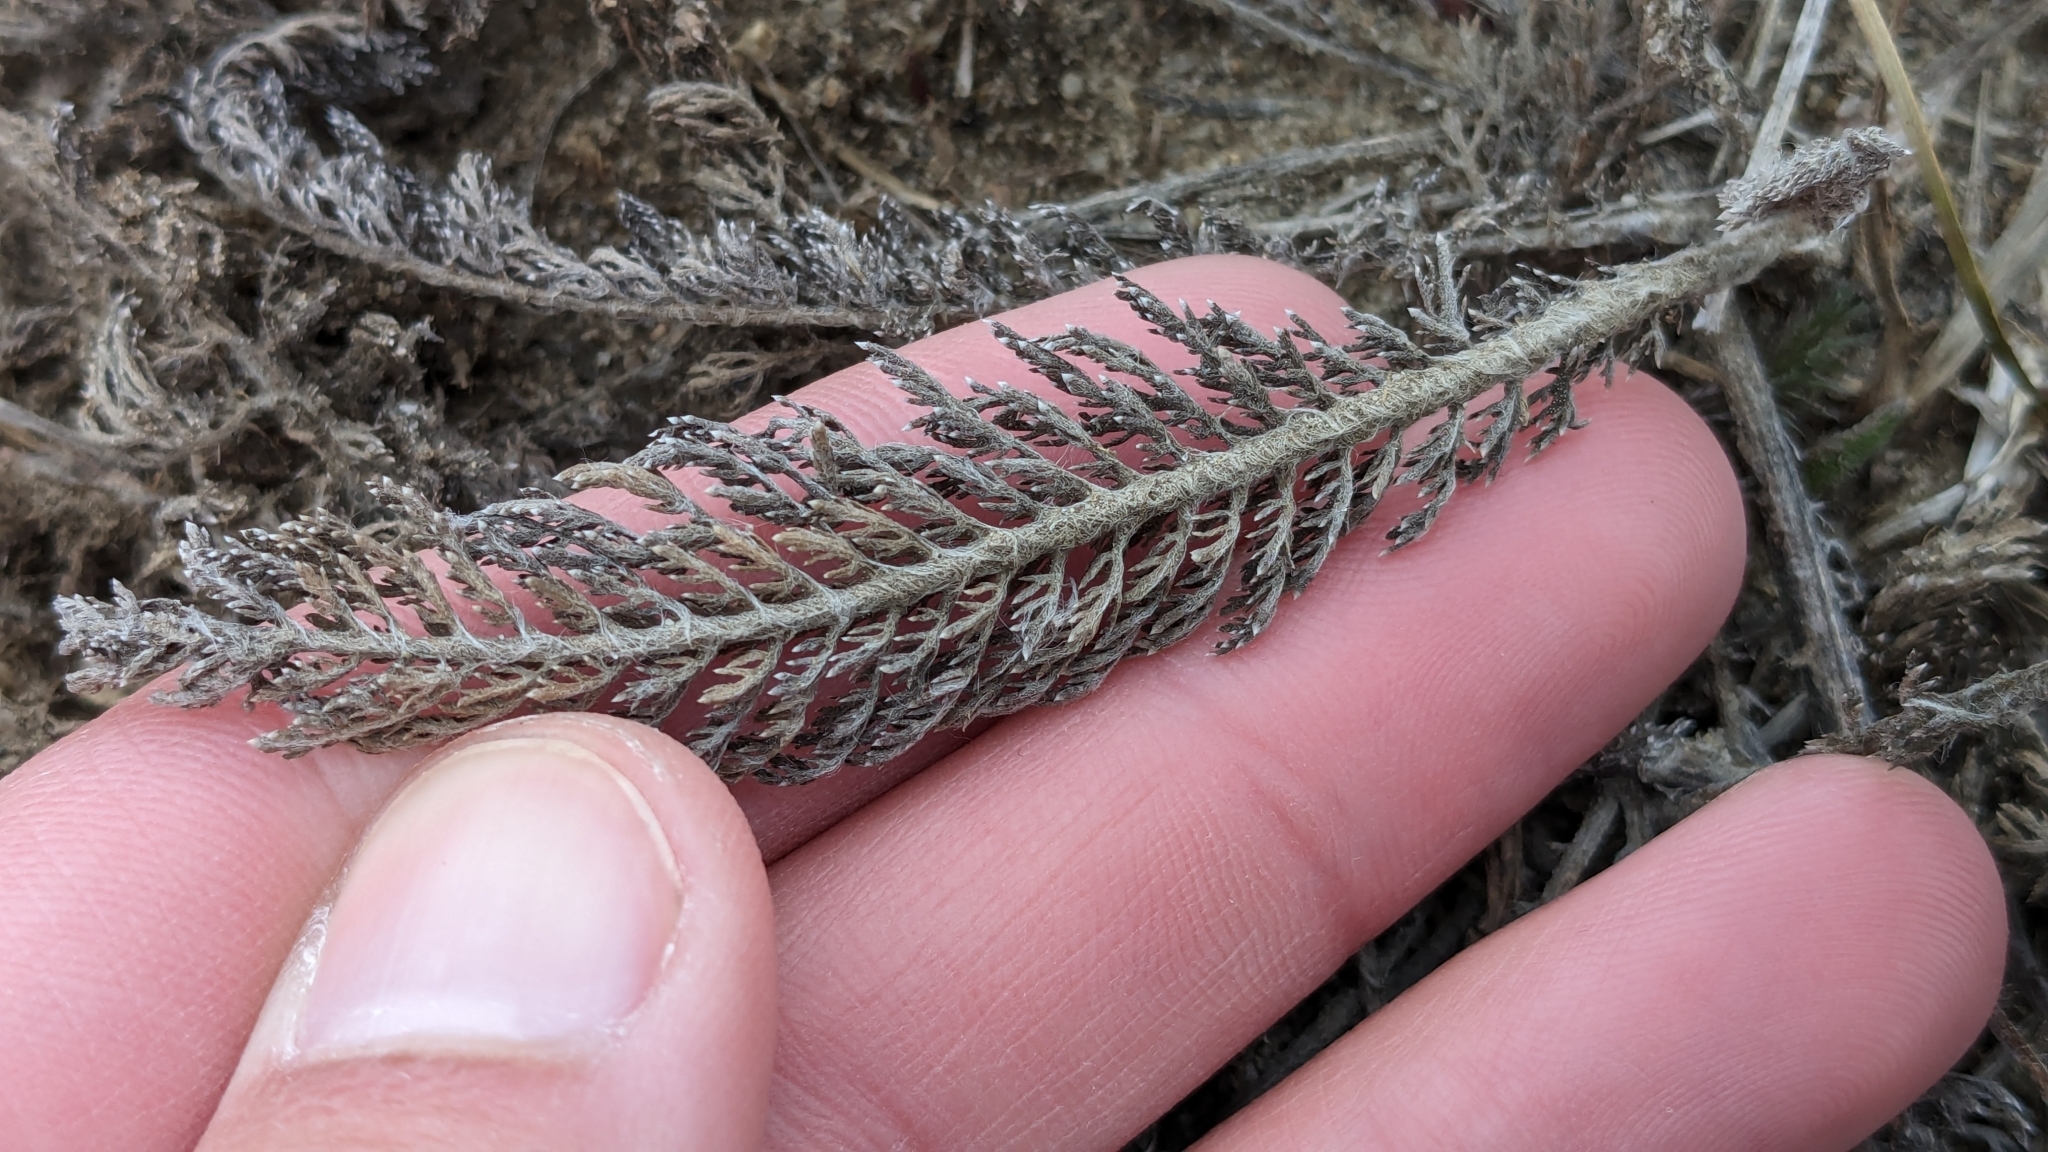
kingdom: Plantae
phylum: Tracheophyta
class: Magnoliopsida
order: Asterales
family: Asteraceae
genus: Achillea
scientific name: Achillea millefolium
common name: Yarrow
